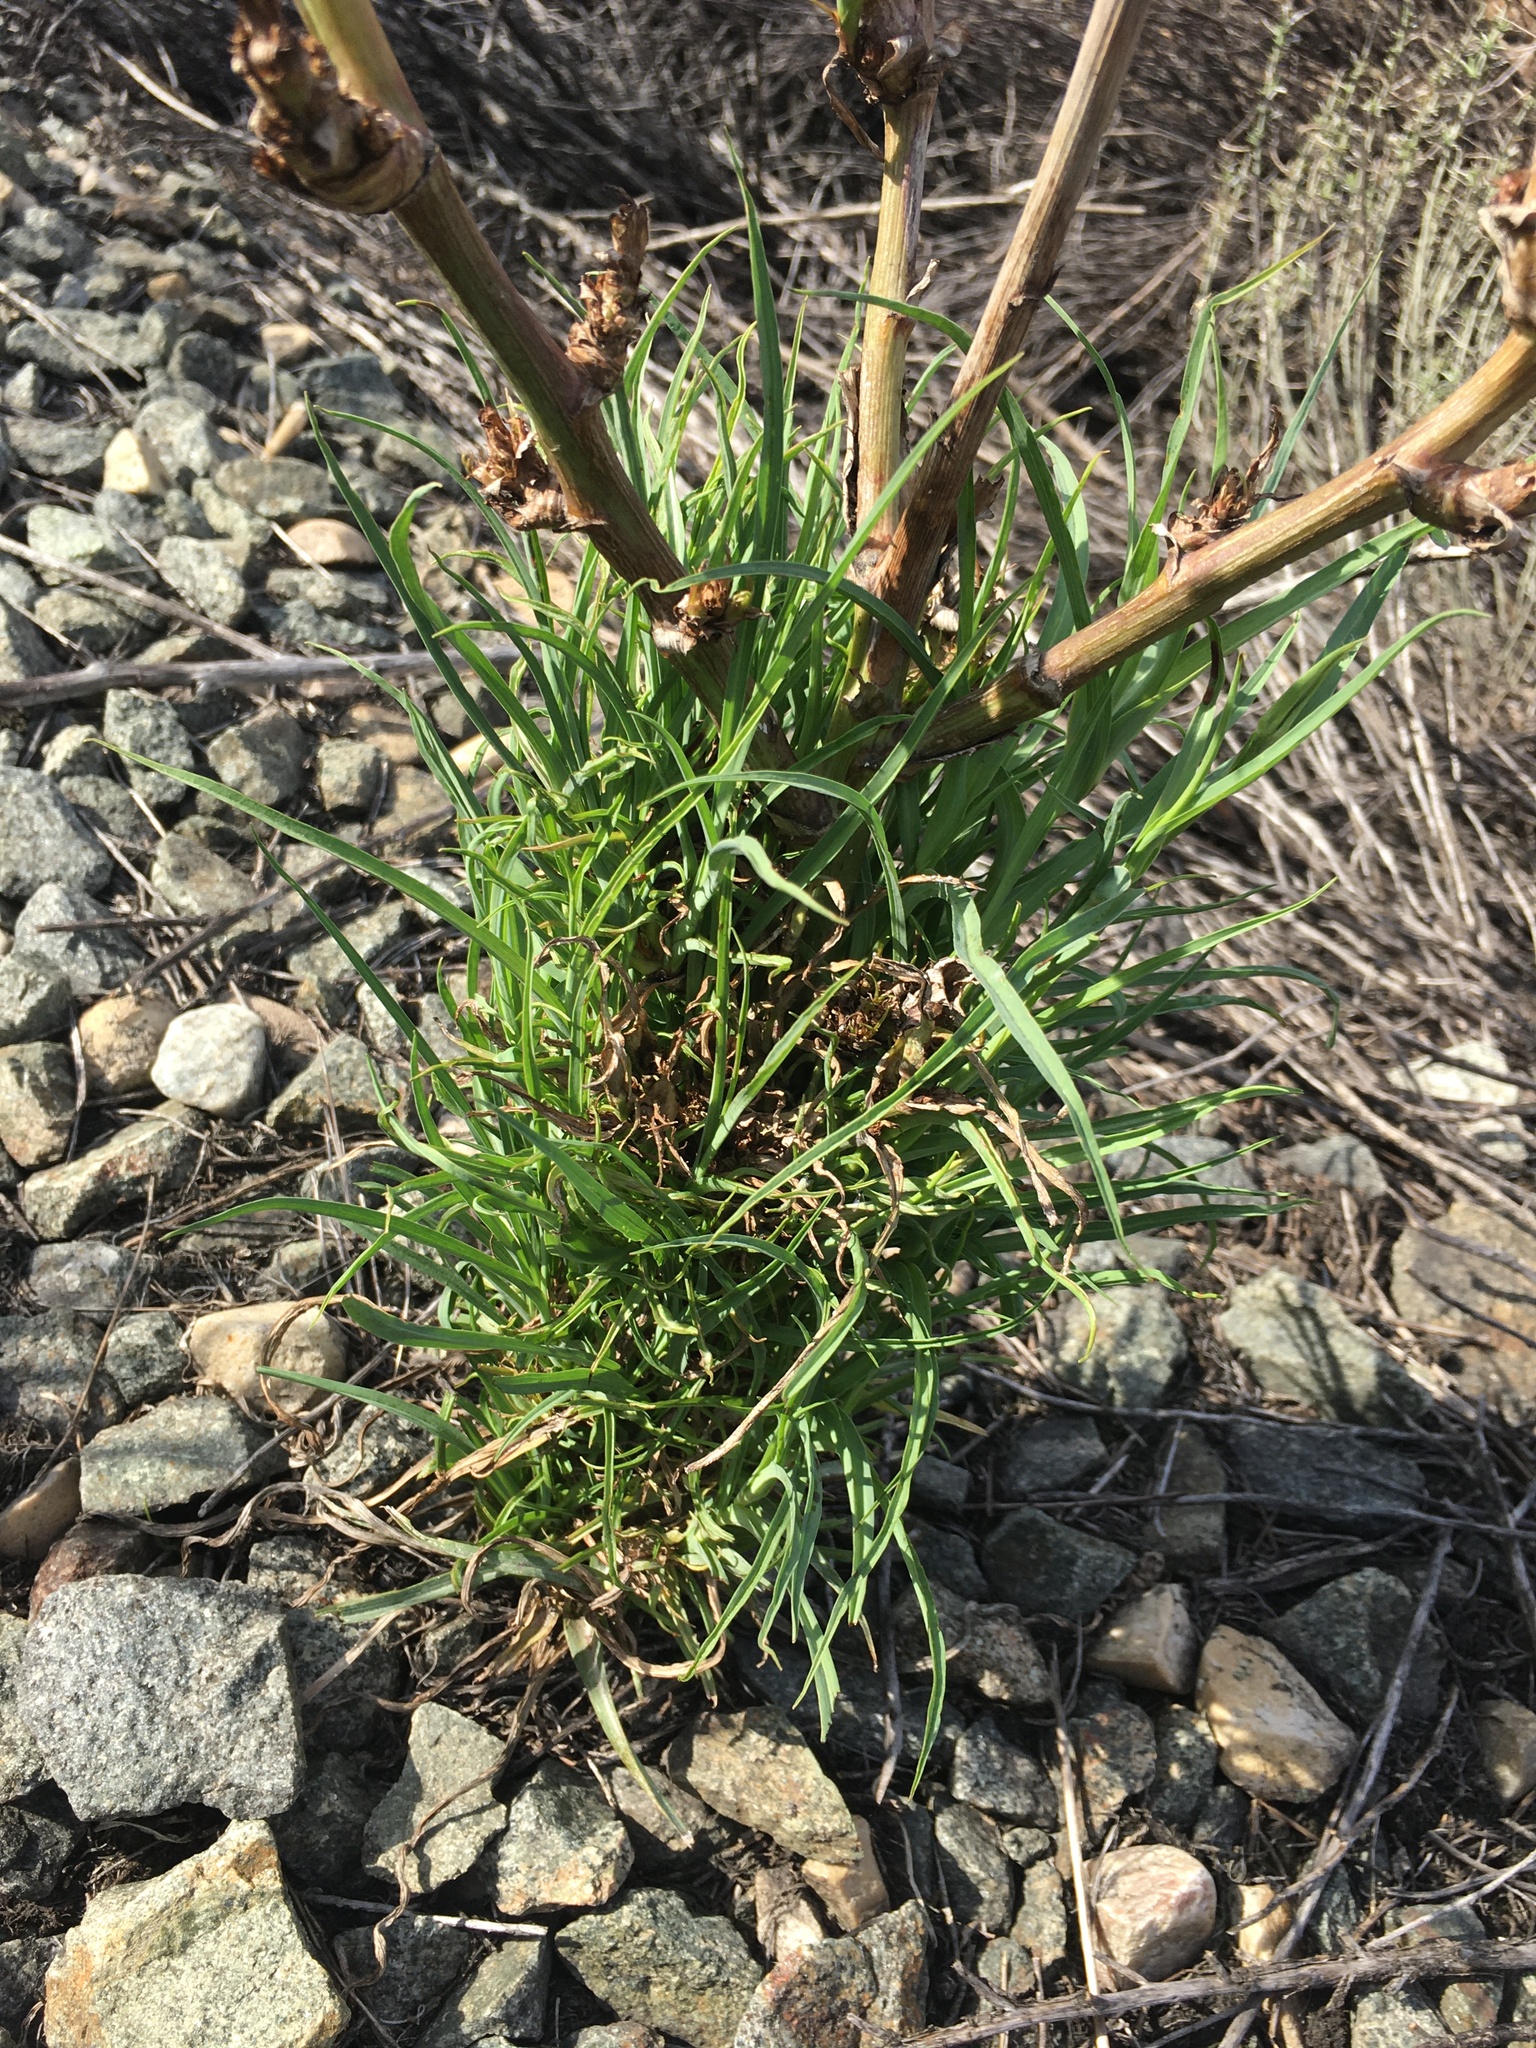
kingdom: Plantae
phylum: Tracheophyta
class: Magnoliopsida
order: Asterales
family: Asteraceae
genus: Tragopogon
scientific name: Tragopogon dubius
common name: Yellow salsify
